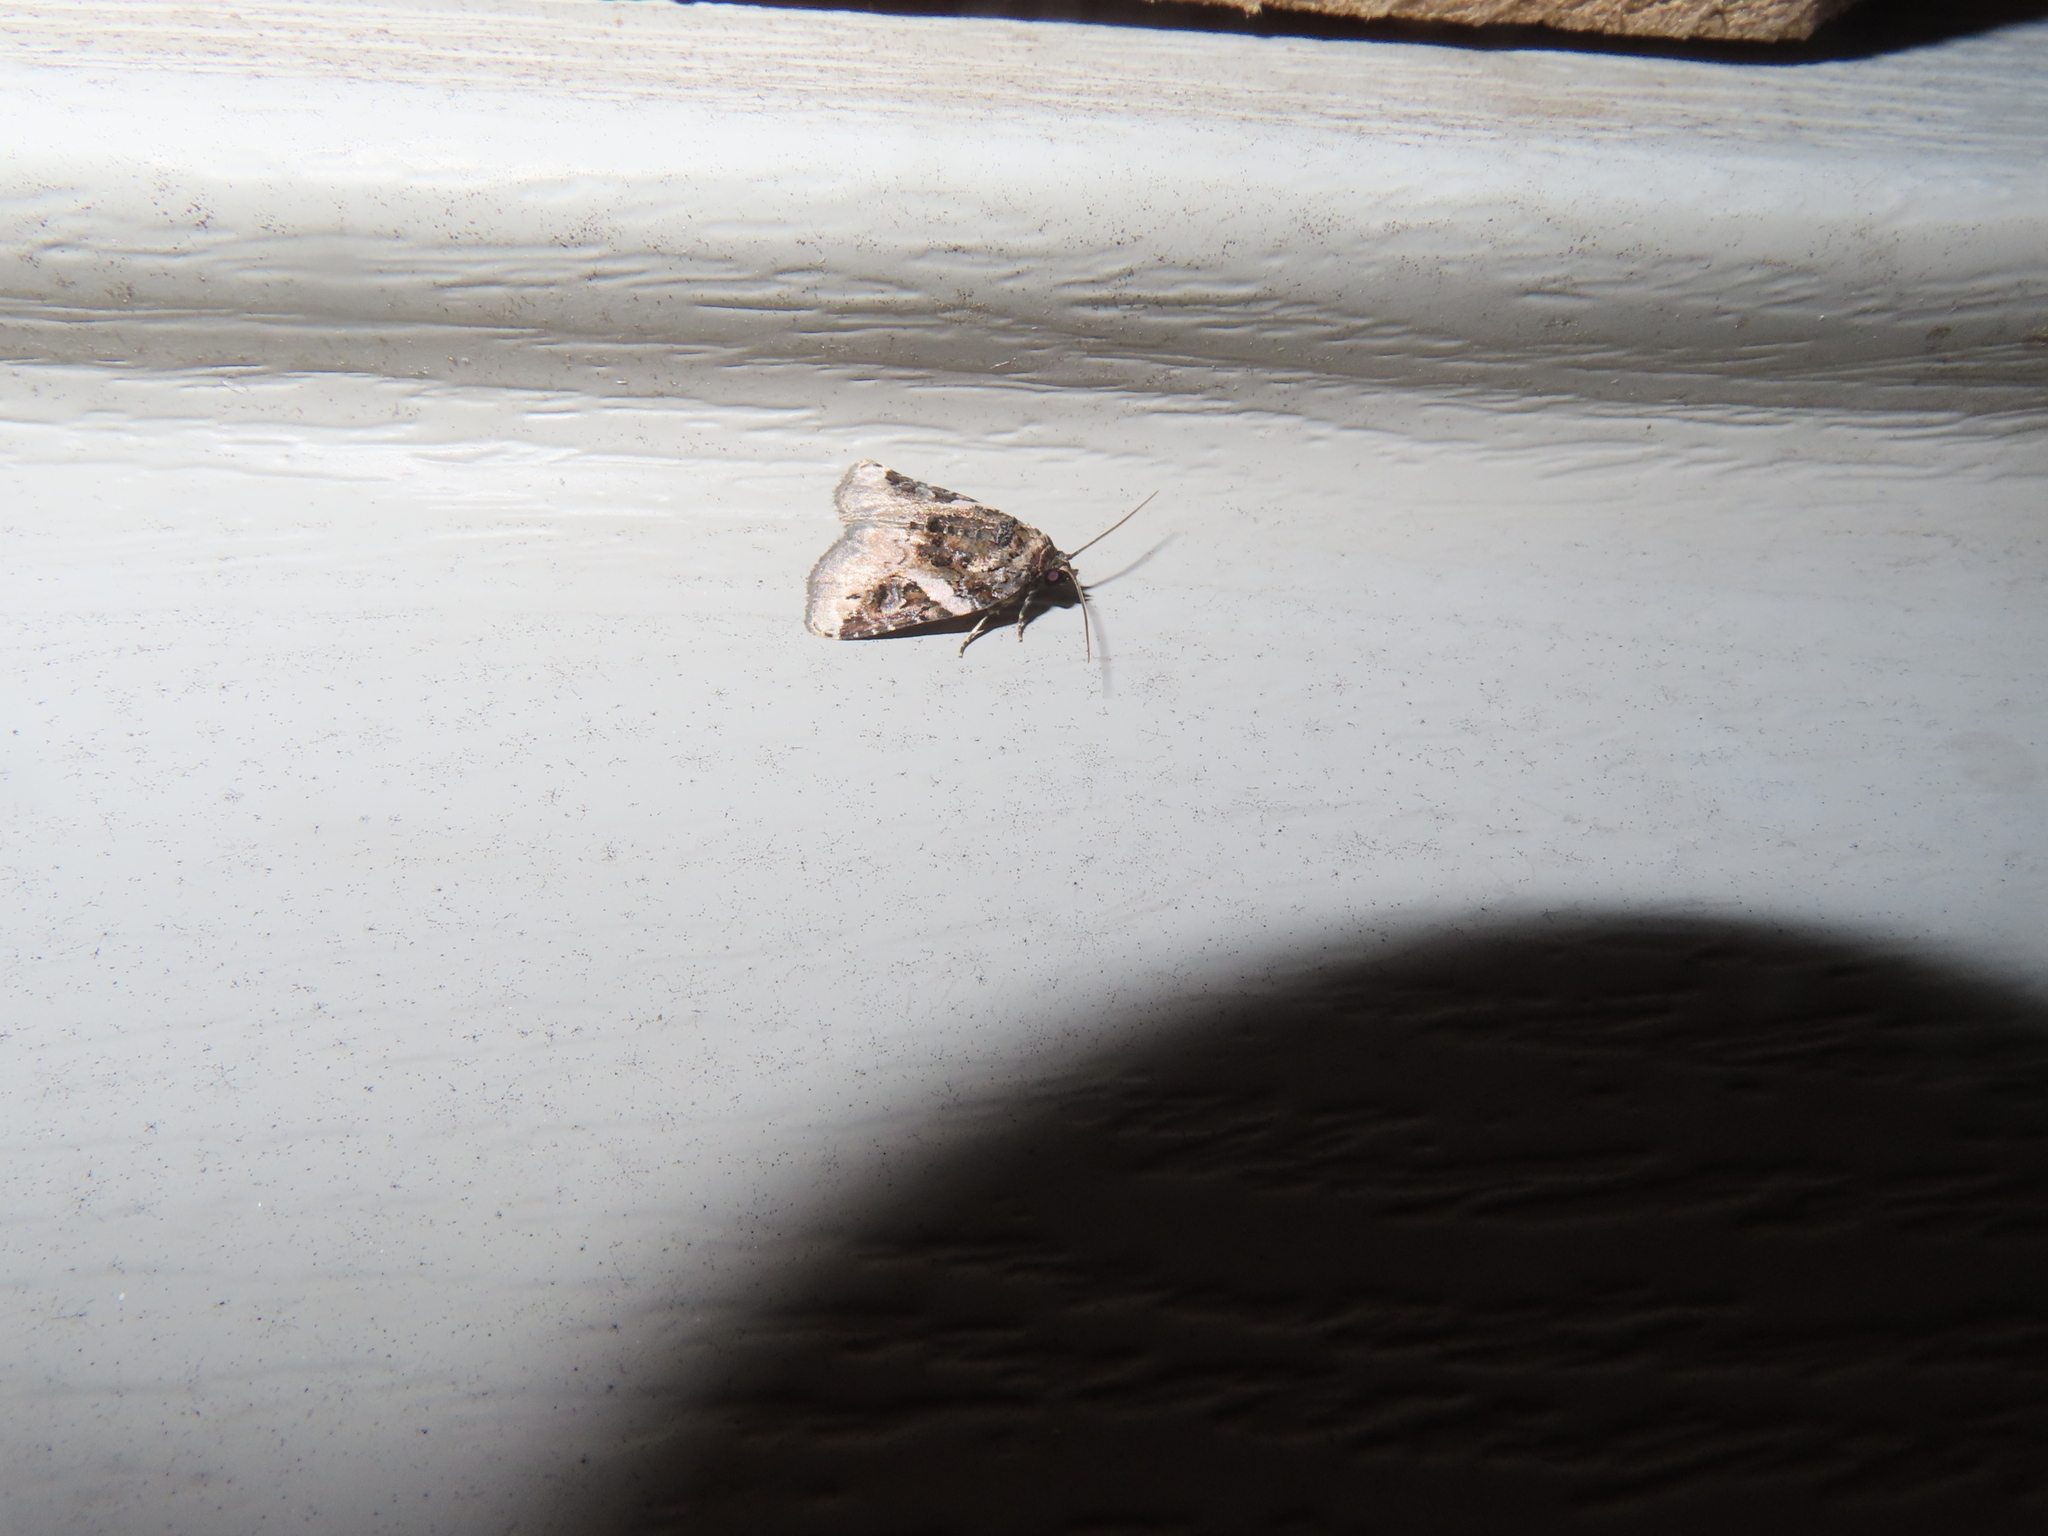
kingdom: Animalia
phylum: Arthropoda
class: Insecta
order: Lepidoptera
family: Noctuidae
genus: Pseudeustrotia
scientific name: Pseudeustrotia carneola
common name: Pink-barred lithacodia moth
